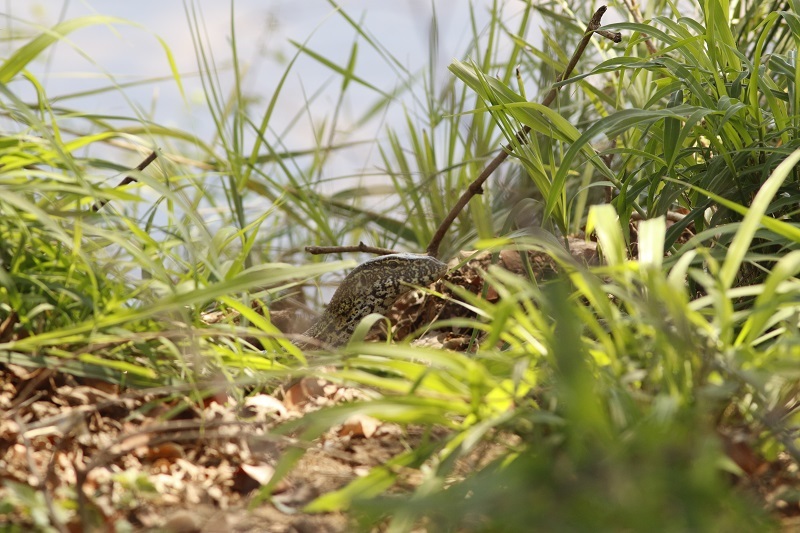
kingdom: Animalia
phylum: Chordata
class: Squamata
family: Varanidae
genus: Varanus
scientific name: Varanus niloticus
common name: Nile monitor
